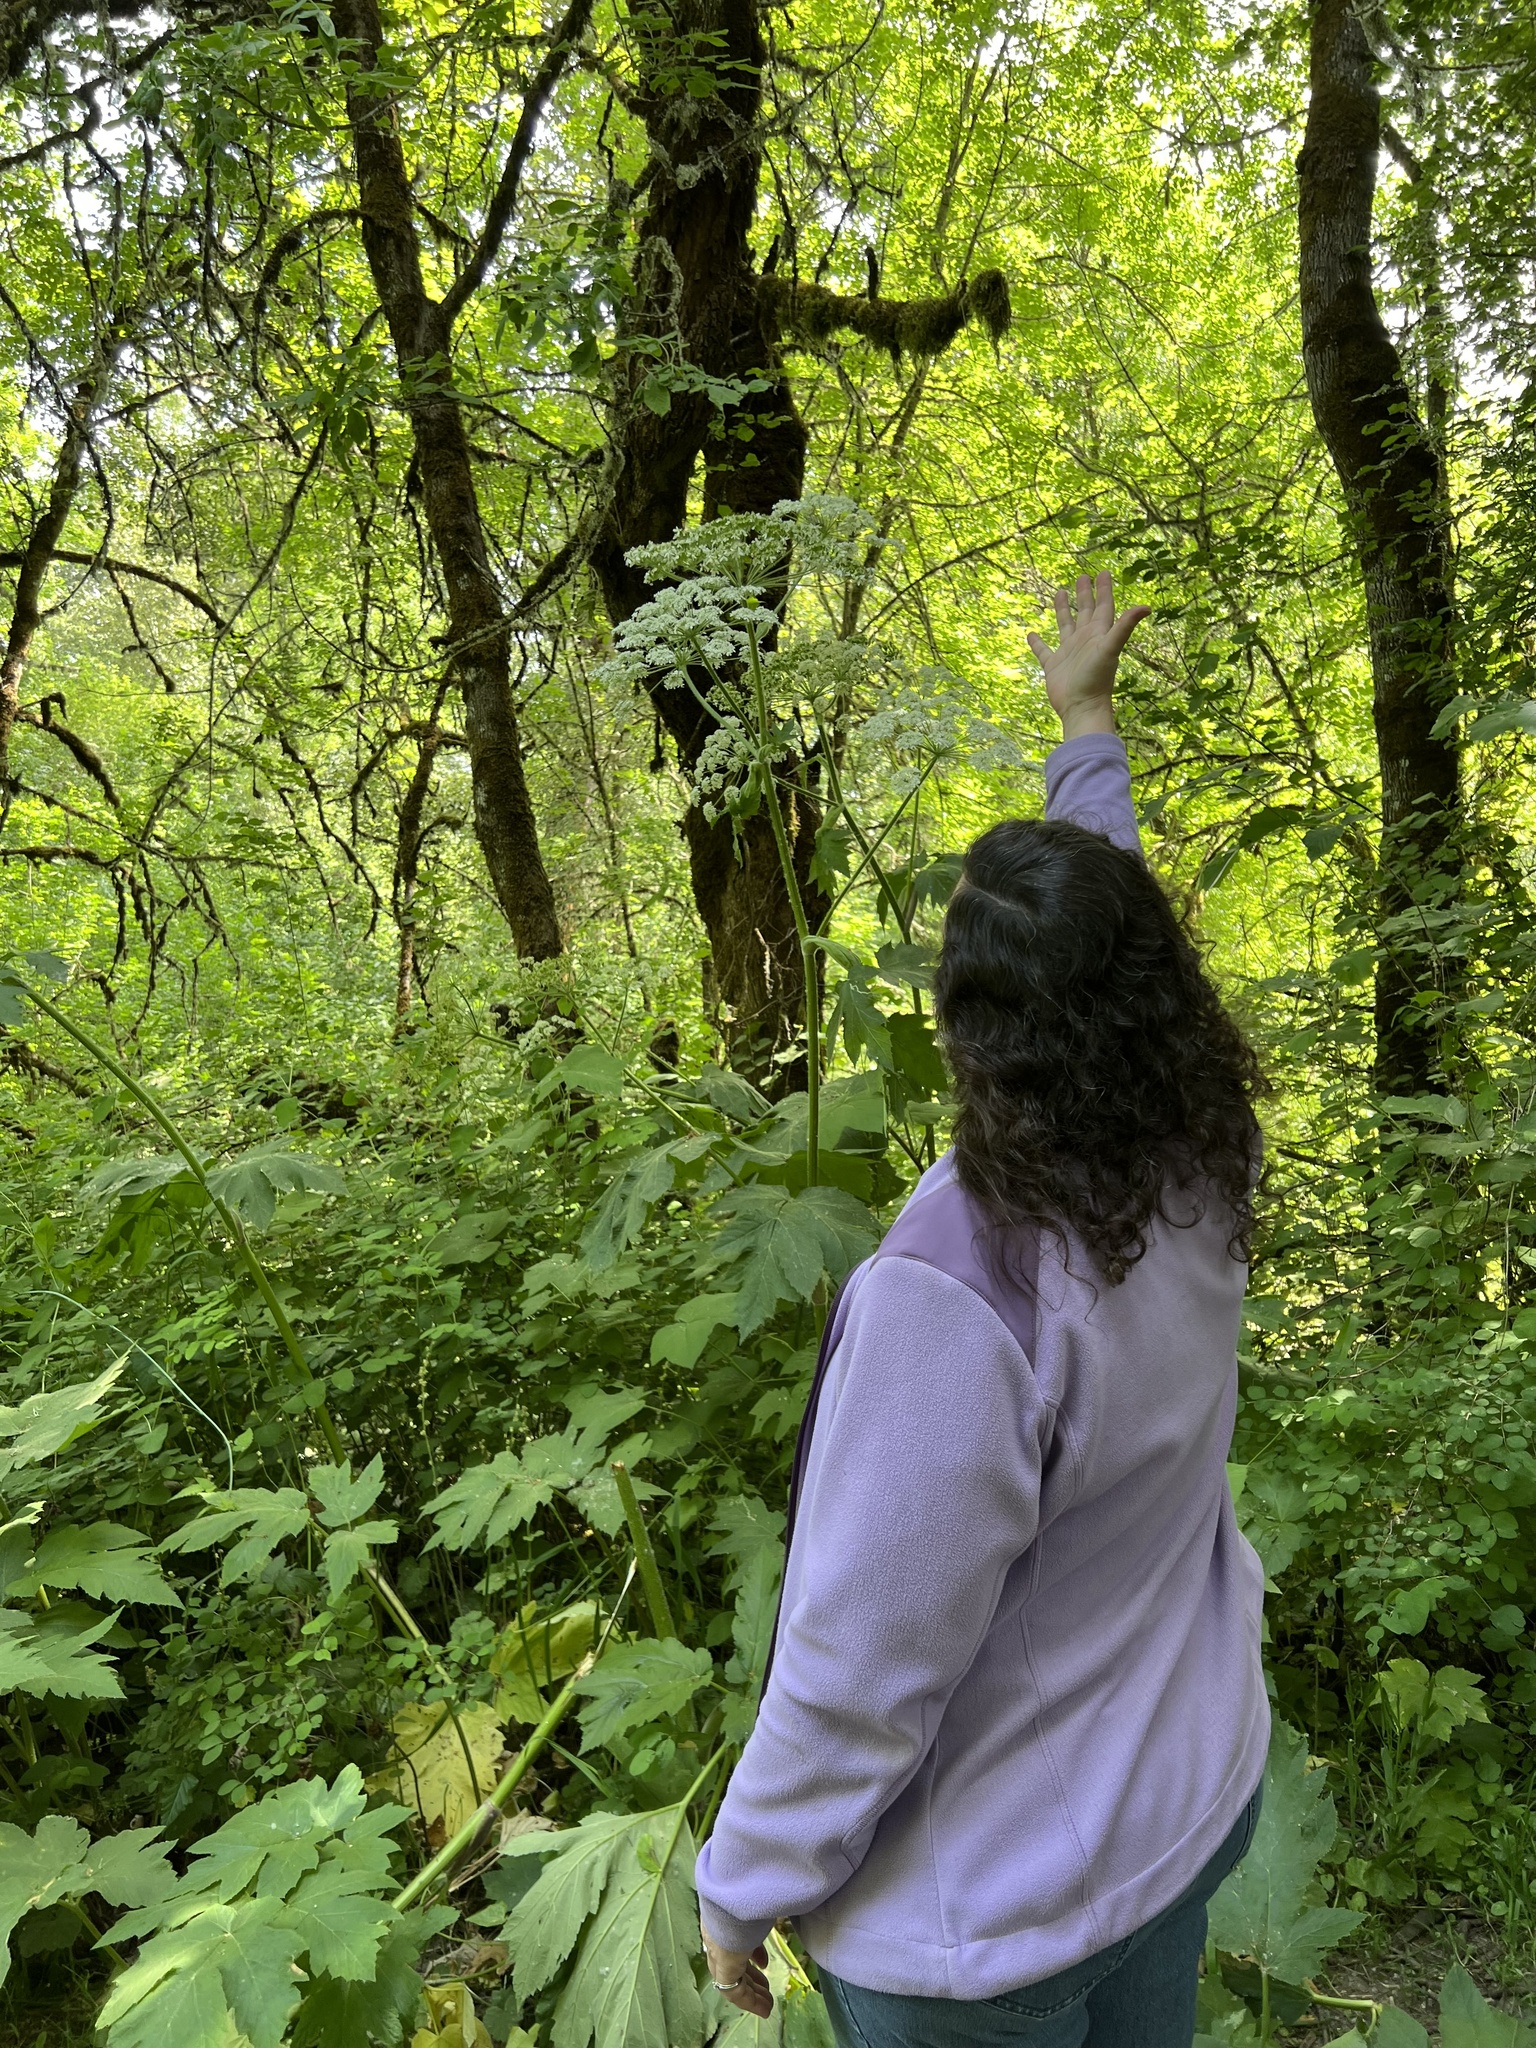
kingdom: Plantae
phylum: Tracheophyta
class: Magnoliopsida
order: Apiales
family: Apiaceae
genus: Heracleum
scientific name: Heracleum maximum
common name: American cow parsnip
